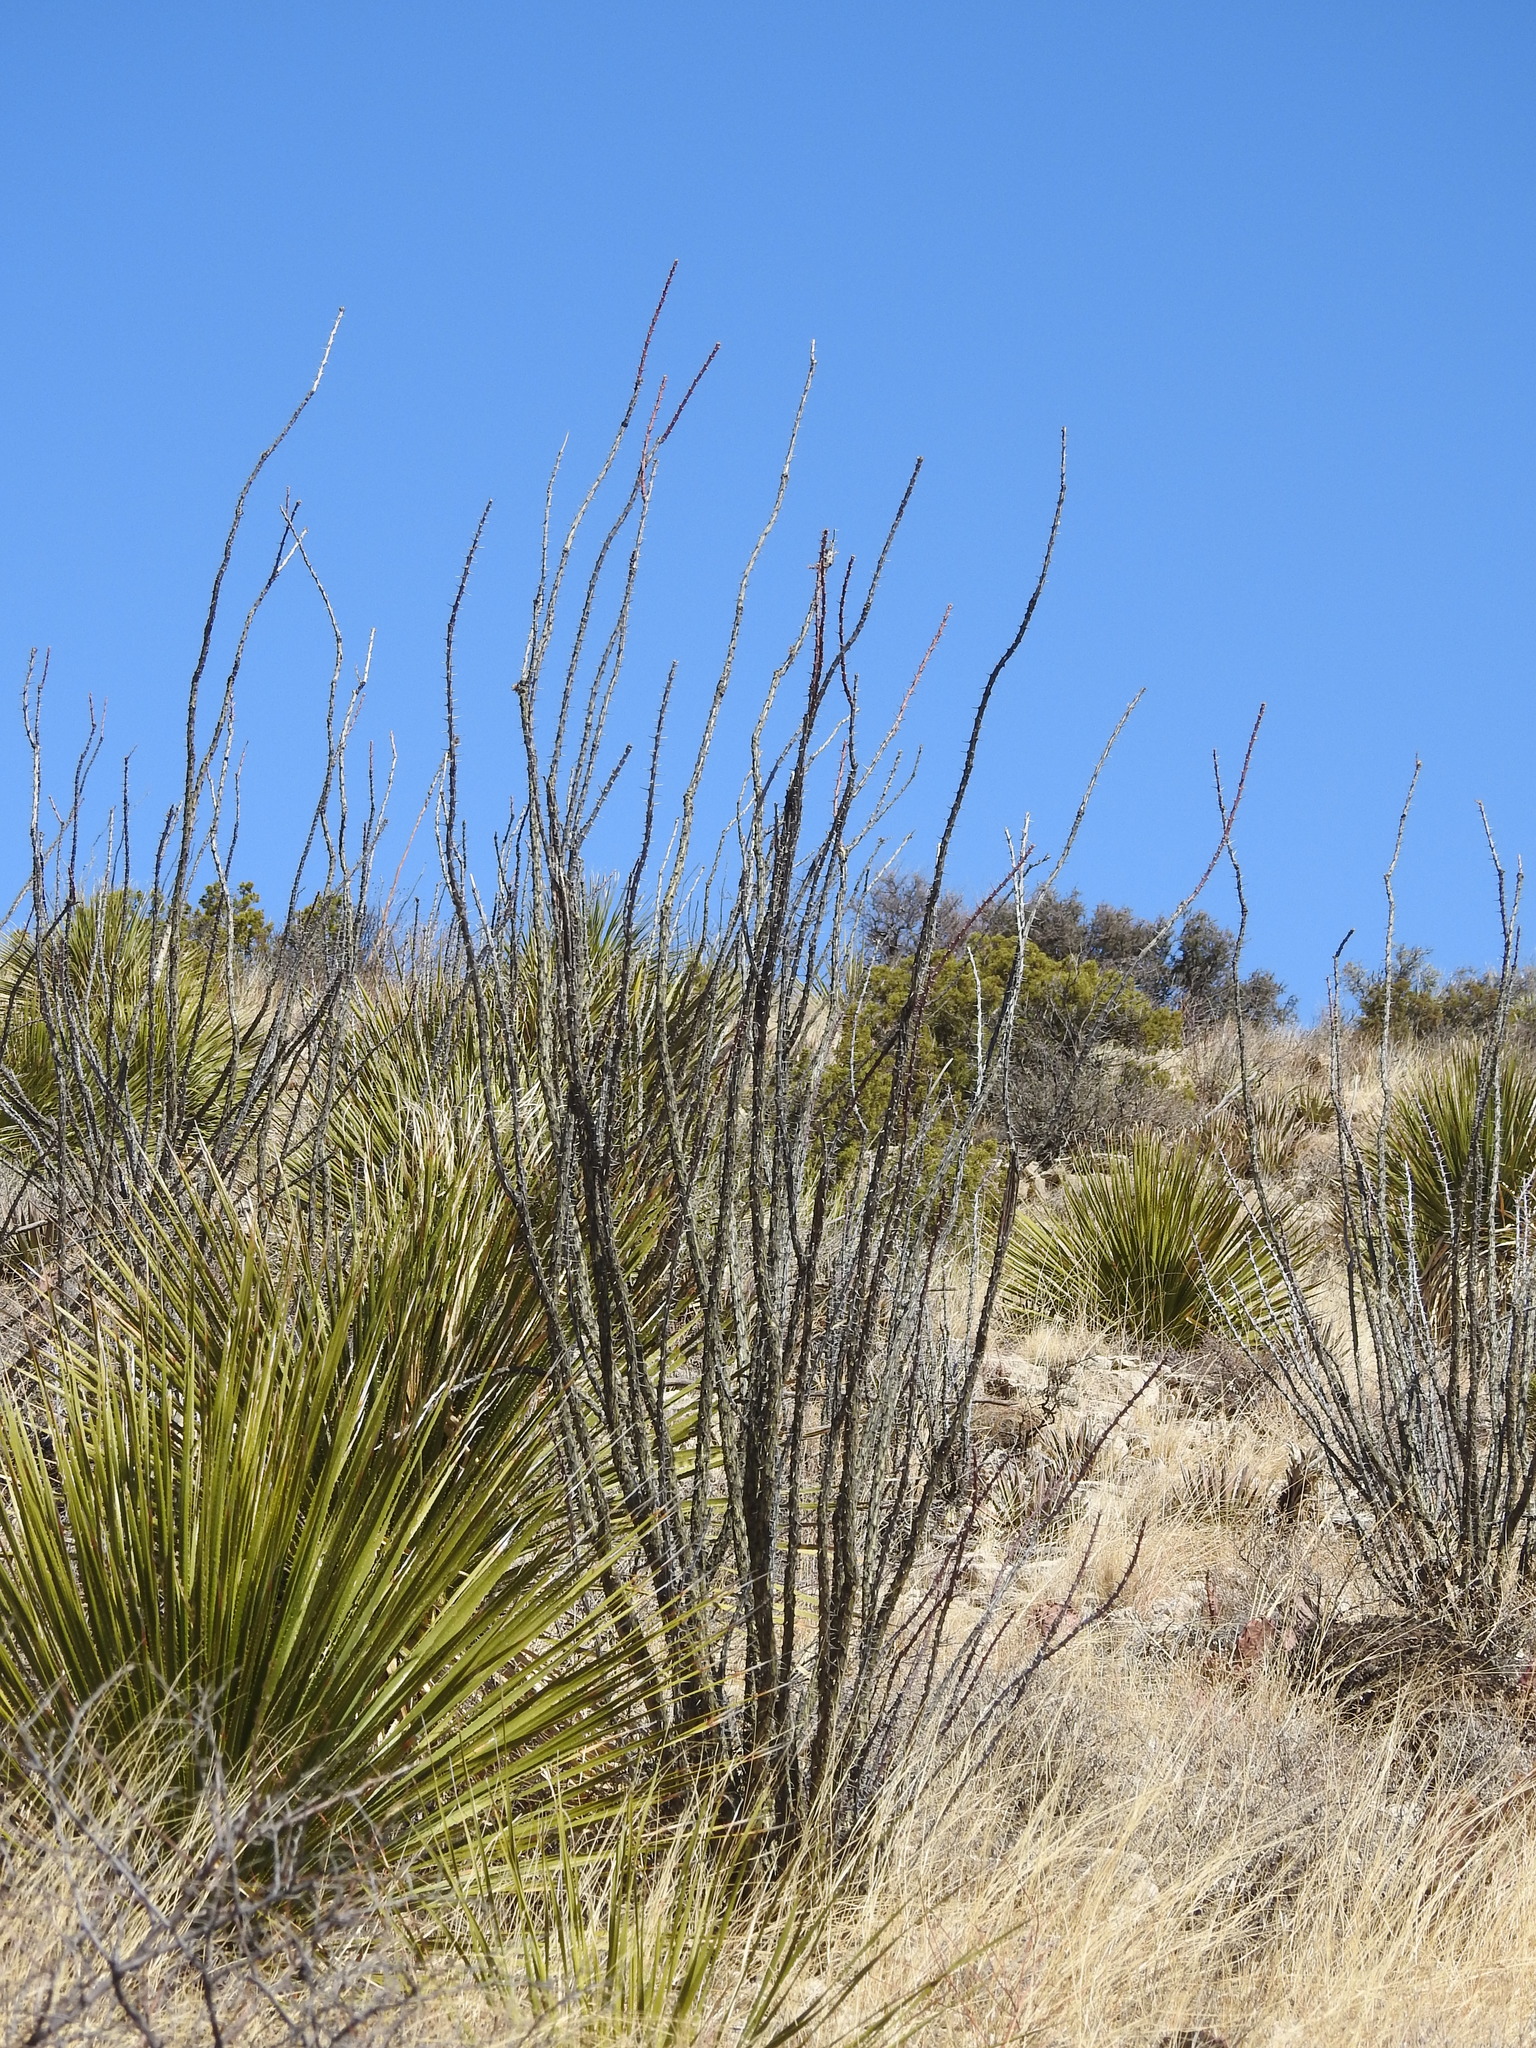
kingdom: Plantae
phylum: Tracheophyta
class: Magnoliopsida
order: Ericales
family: Fouquieriaceae
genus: Fouquieria
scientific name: Fouquieria splendens
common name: Vine-cactus
